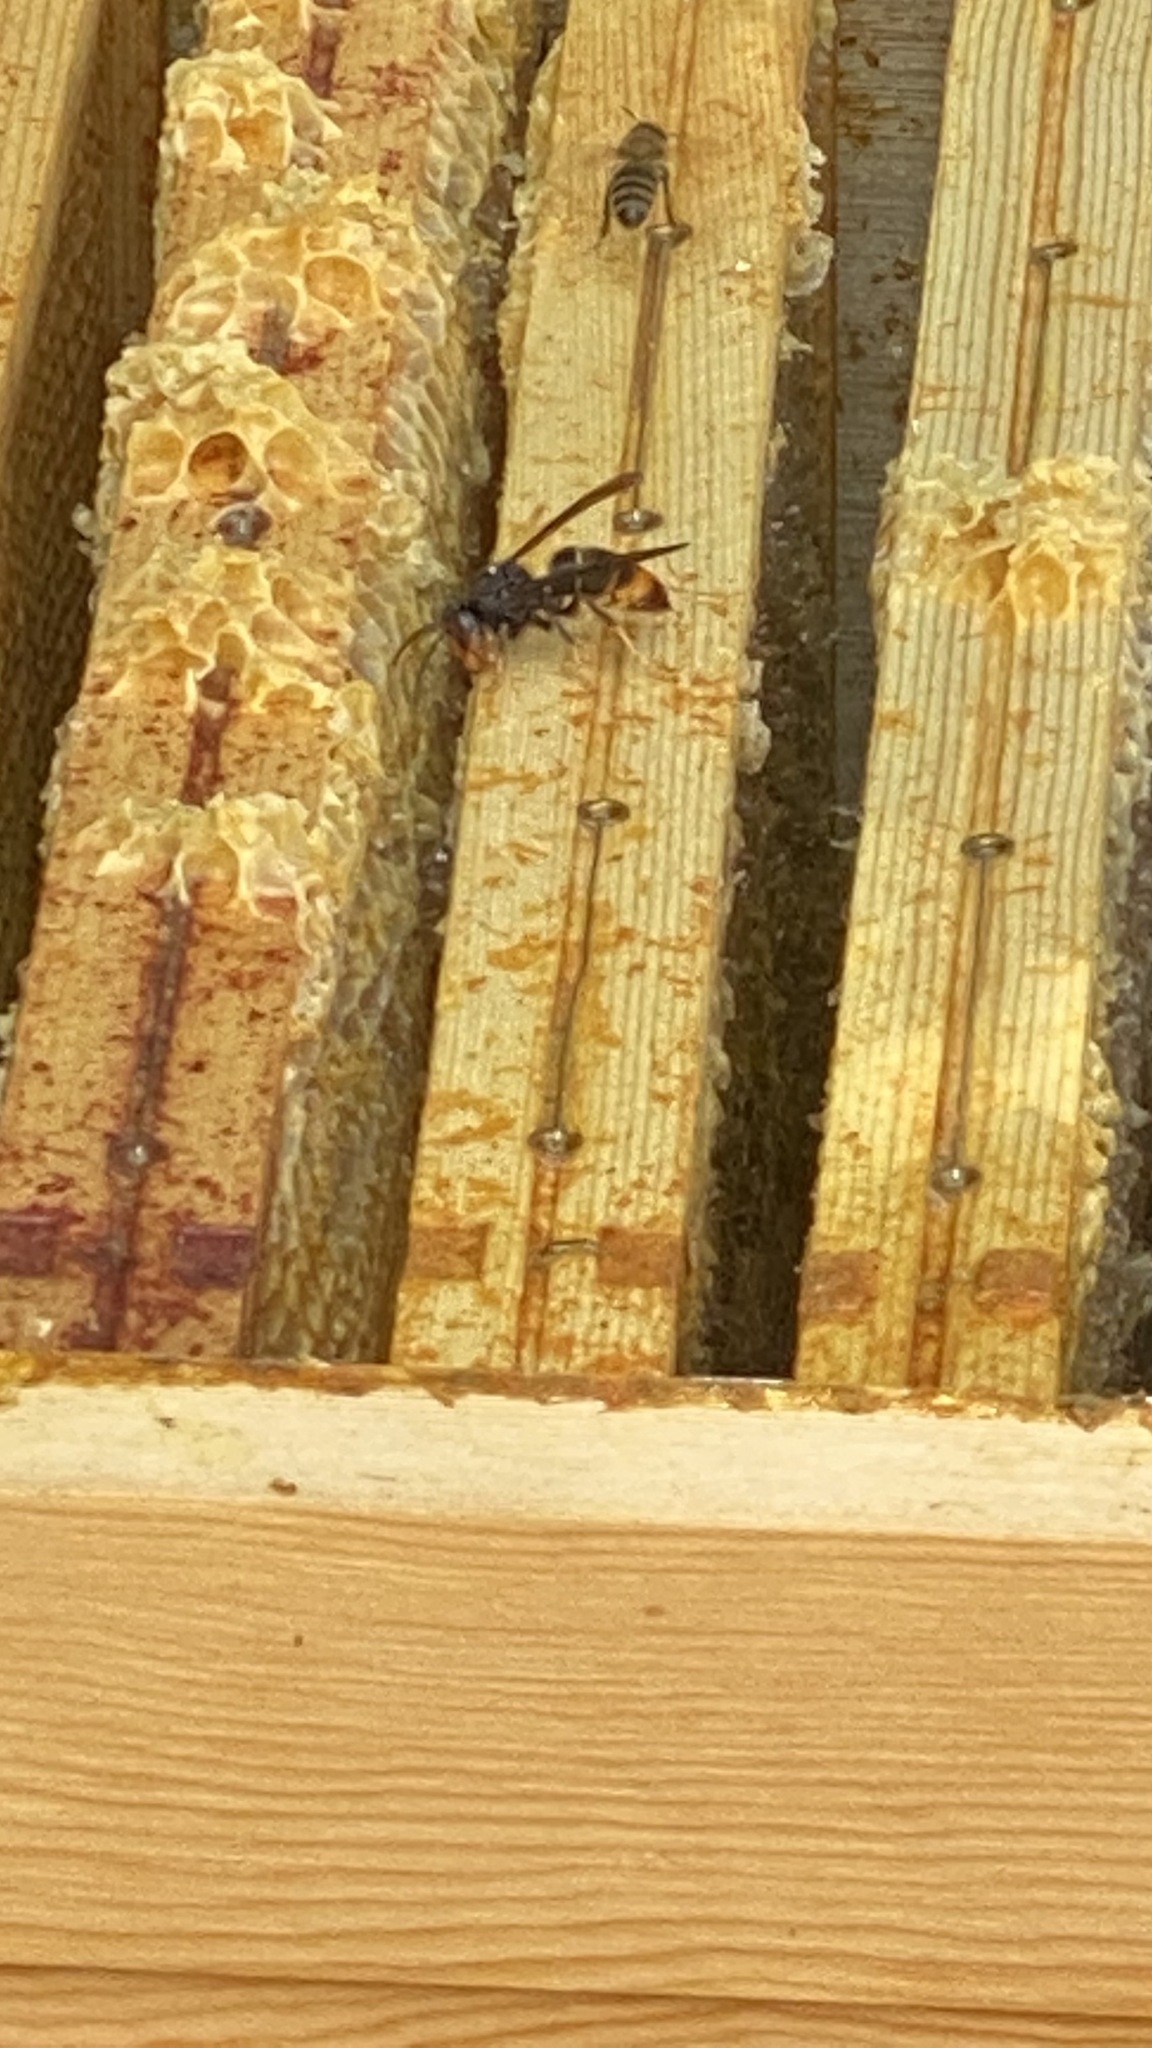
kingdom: Animalia
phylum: Arthropoda
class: Insecta
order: Hymenoptera
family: Vespidae
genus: Vespa
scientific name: Vespa velutina
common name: Asian hornet
